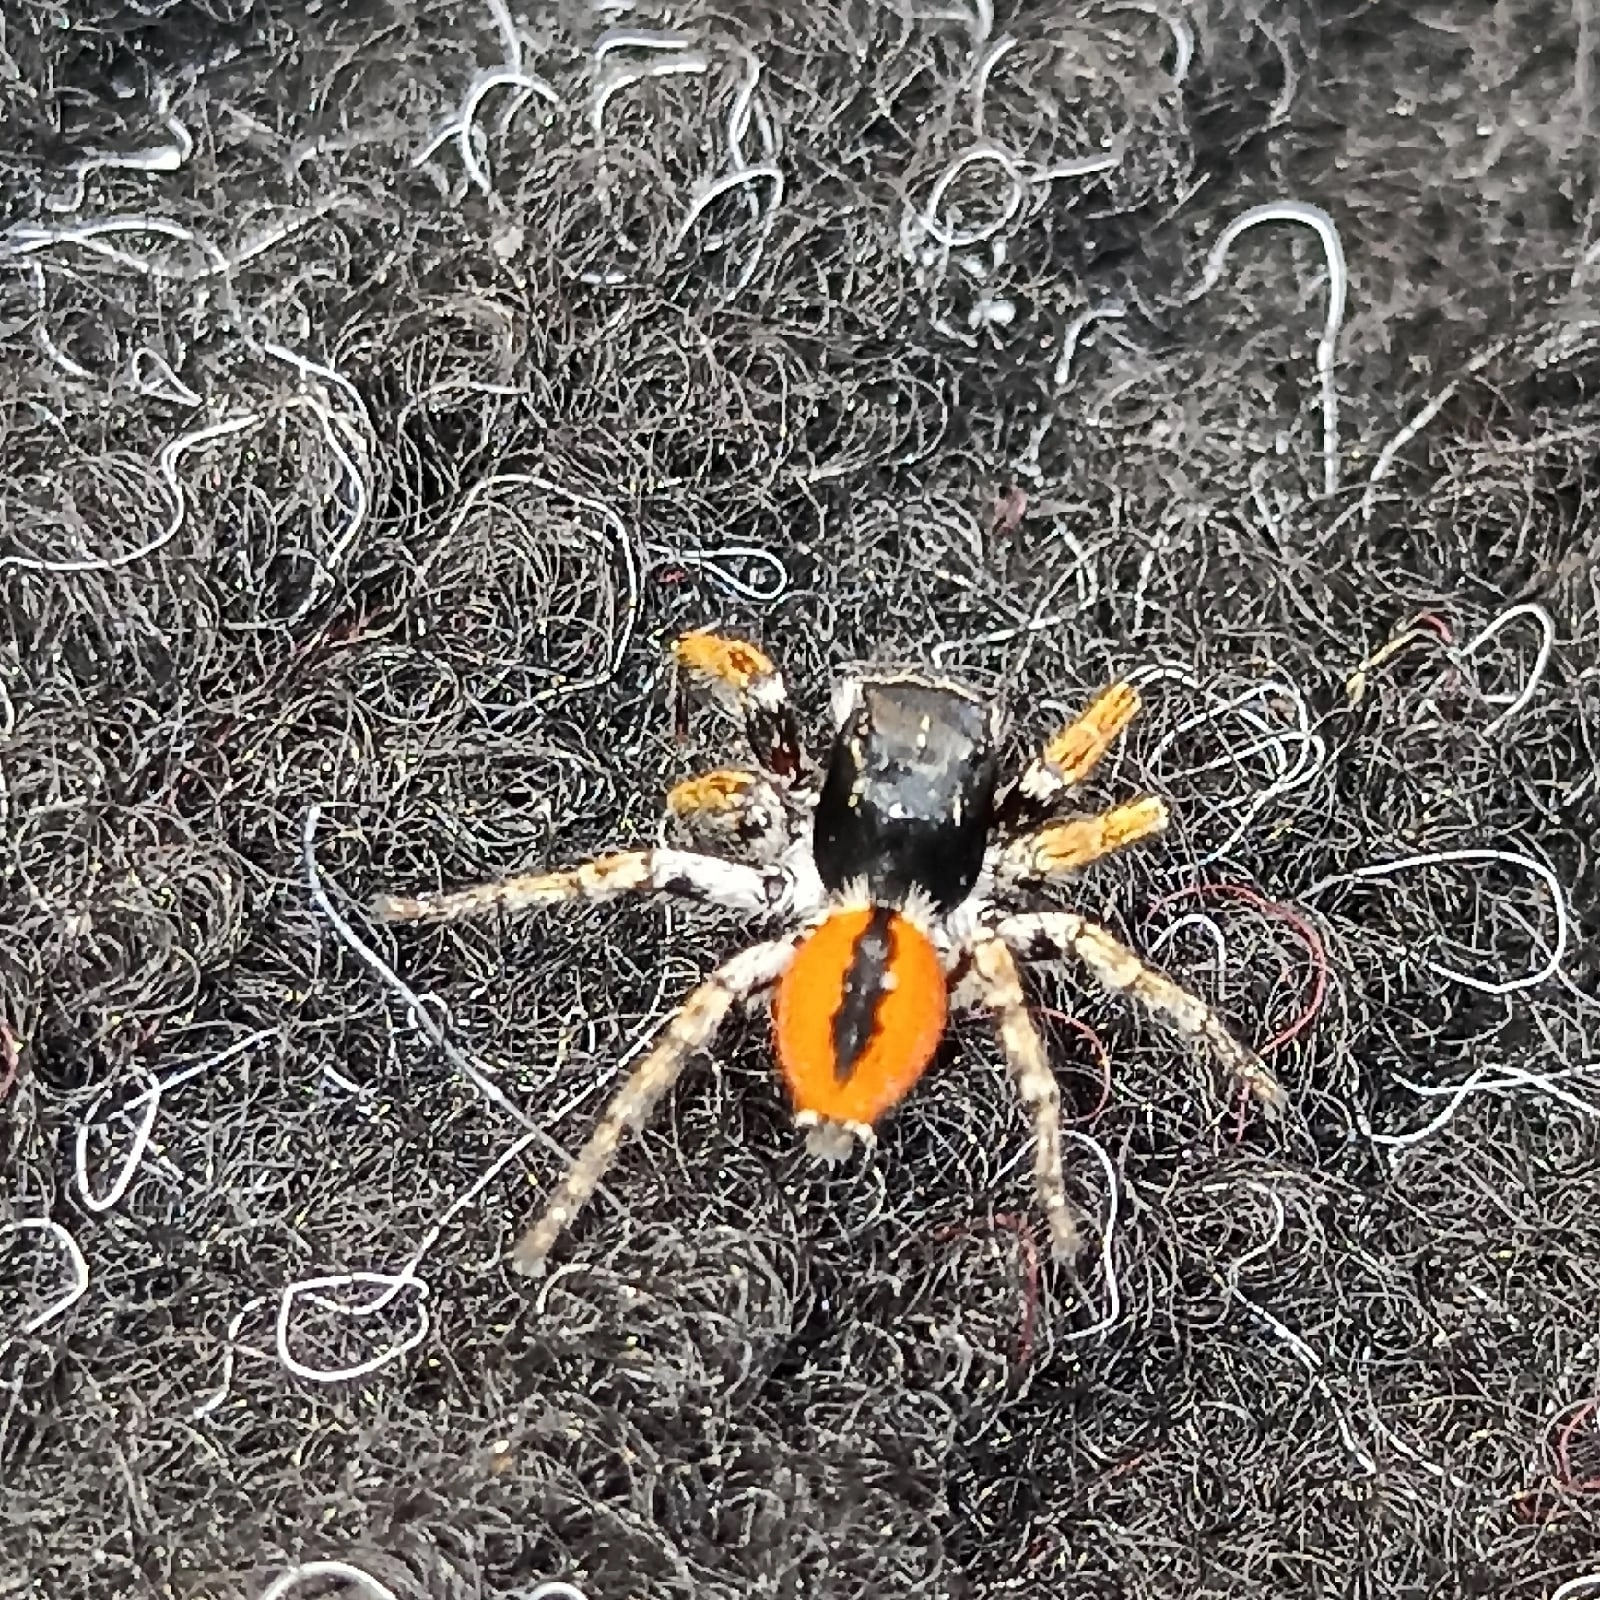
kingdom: Animalia
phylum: Arthropoda
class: Arachnida
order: Araneae
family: Salticidae
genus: Philaeus
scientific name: Philaeus chrysops
